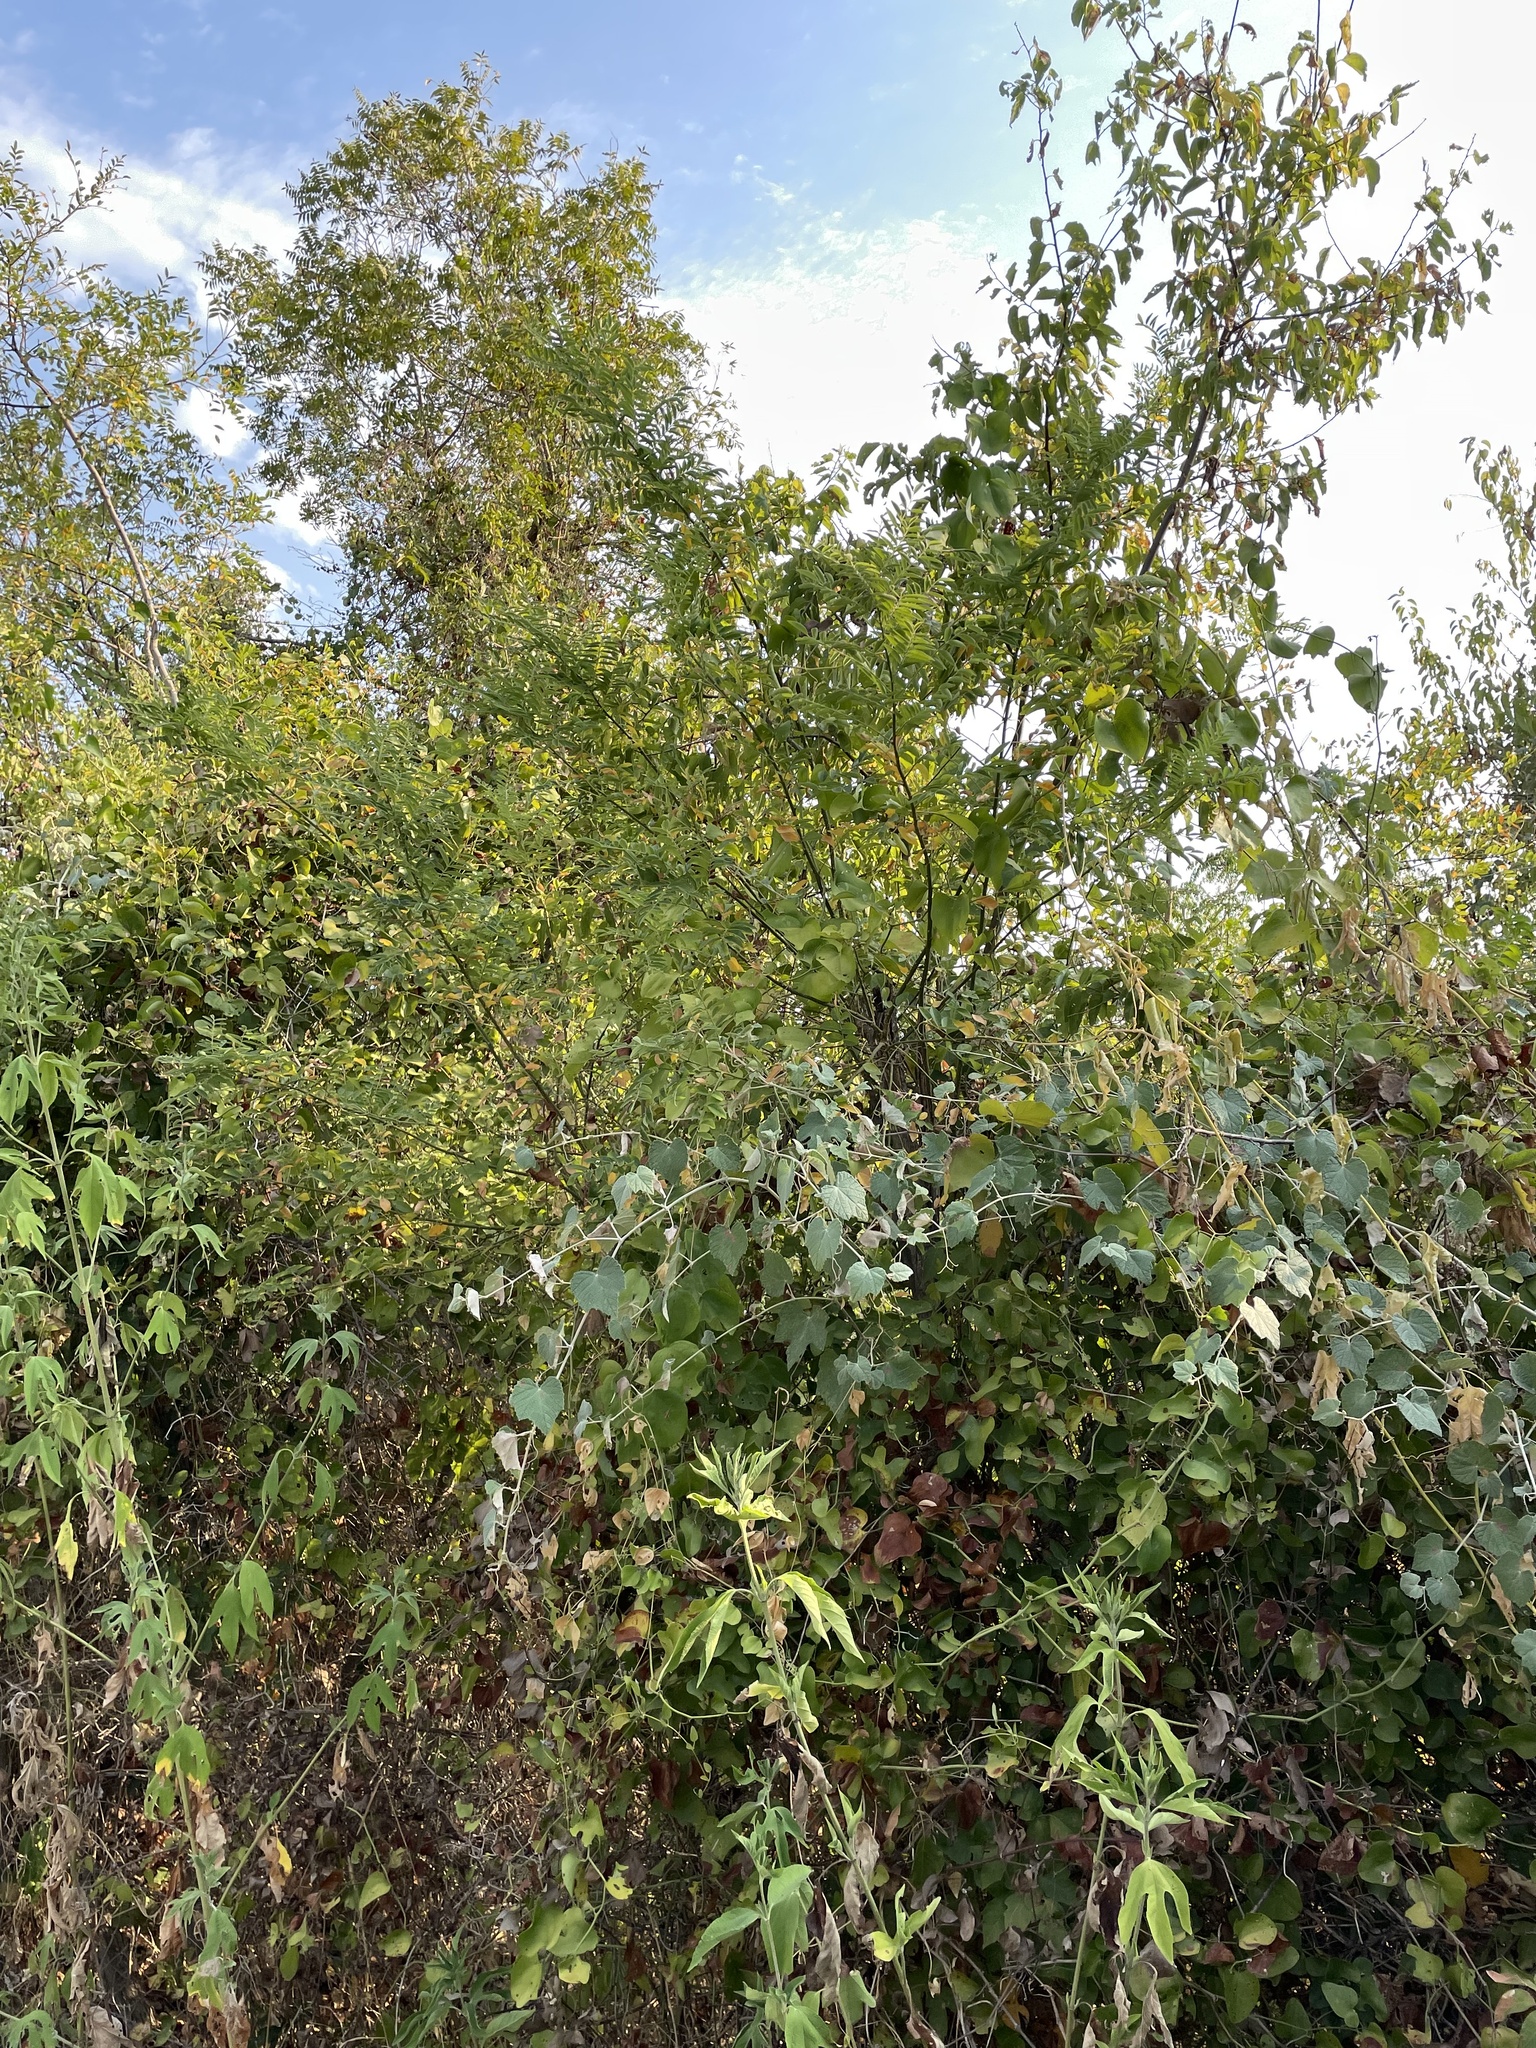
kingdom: Plantae
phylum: Tracheophyta
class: Magnoliopsida
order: Fabales
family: Fabaceae
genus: Styphnolobium
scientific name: Styphnolobium affine
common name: Texas sophora
